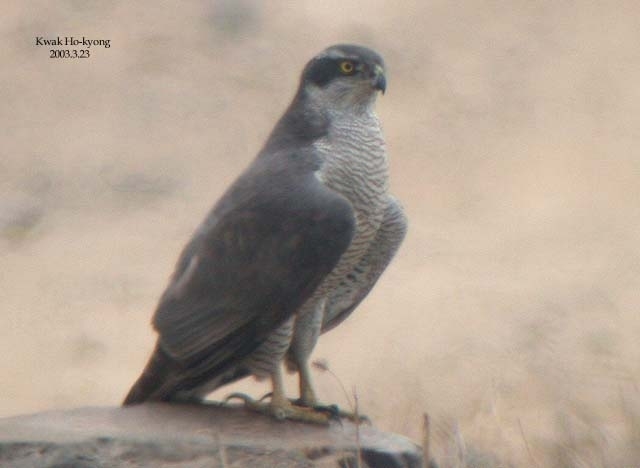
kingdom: Animalia
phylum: Chordata
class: Aves
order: Accipitriformes
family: Accipitridae
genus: Accipiter
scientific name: Accipiter gentilis
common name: Northern goshawk
